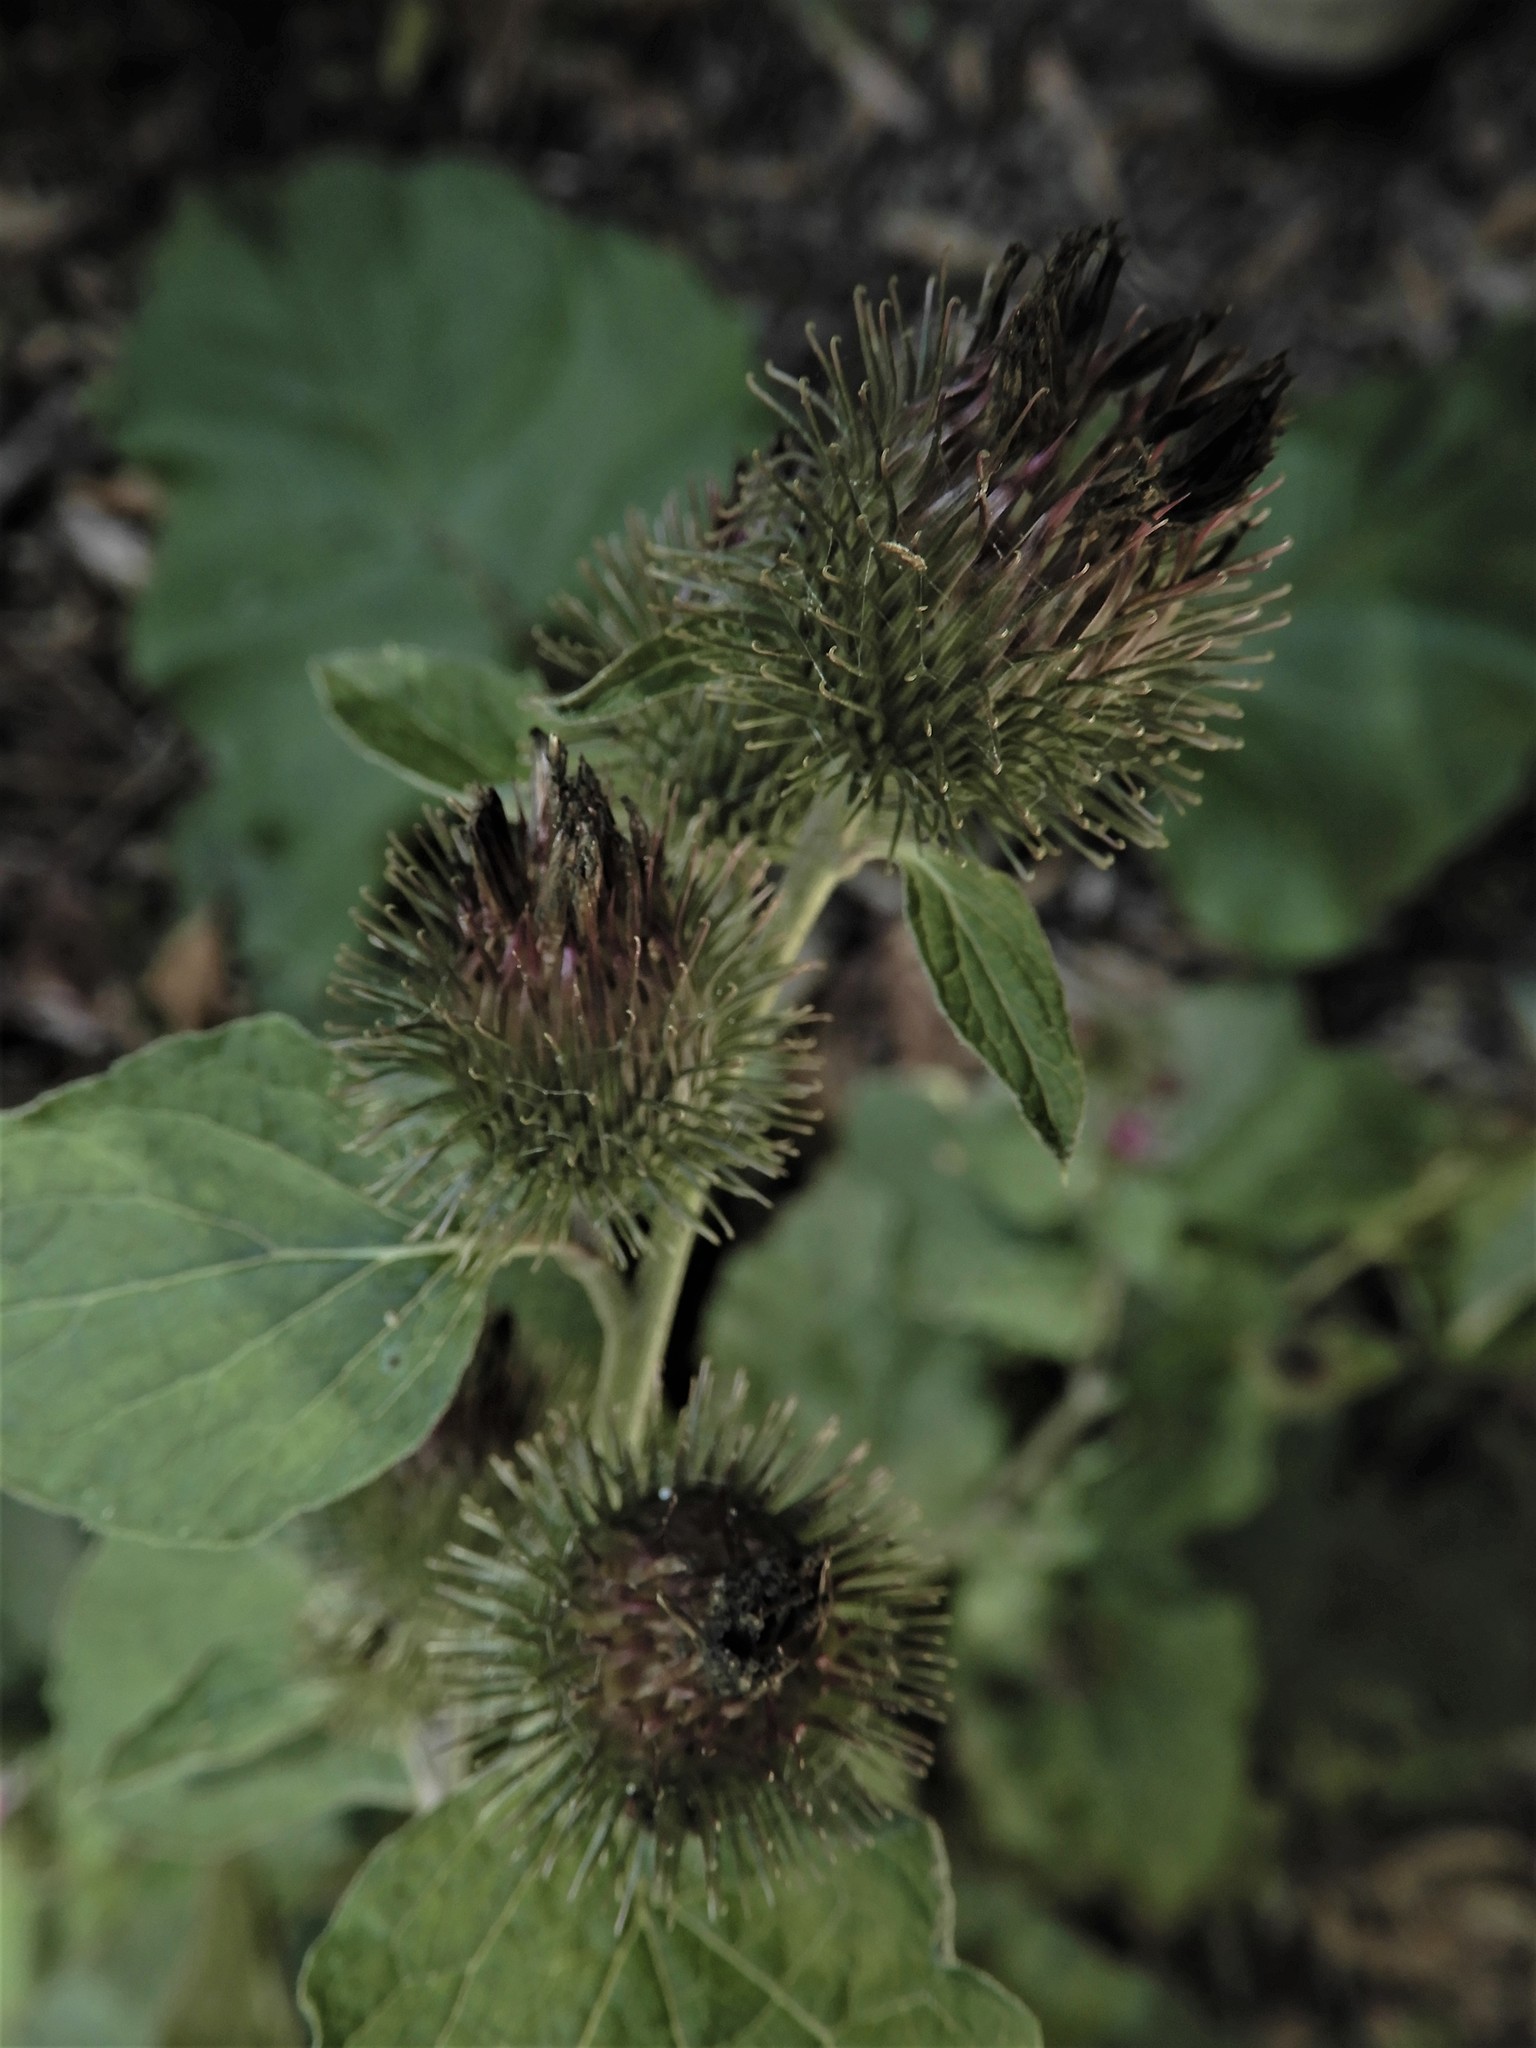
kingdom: Plantae
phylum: Tracheophyta
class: Magnoliopsida
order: Asterales
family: Asteraceae
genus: Arctium
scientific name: Arctium minus
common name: Lesser burdock
